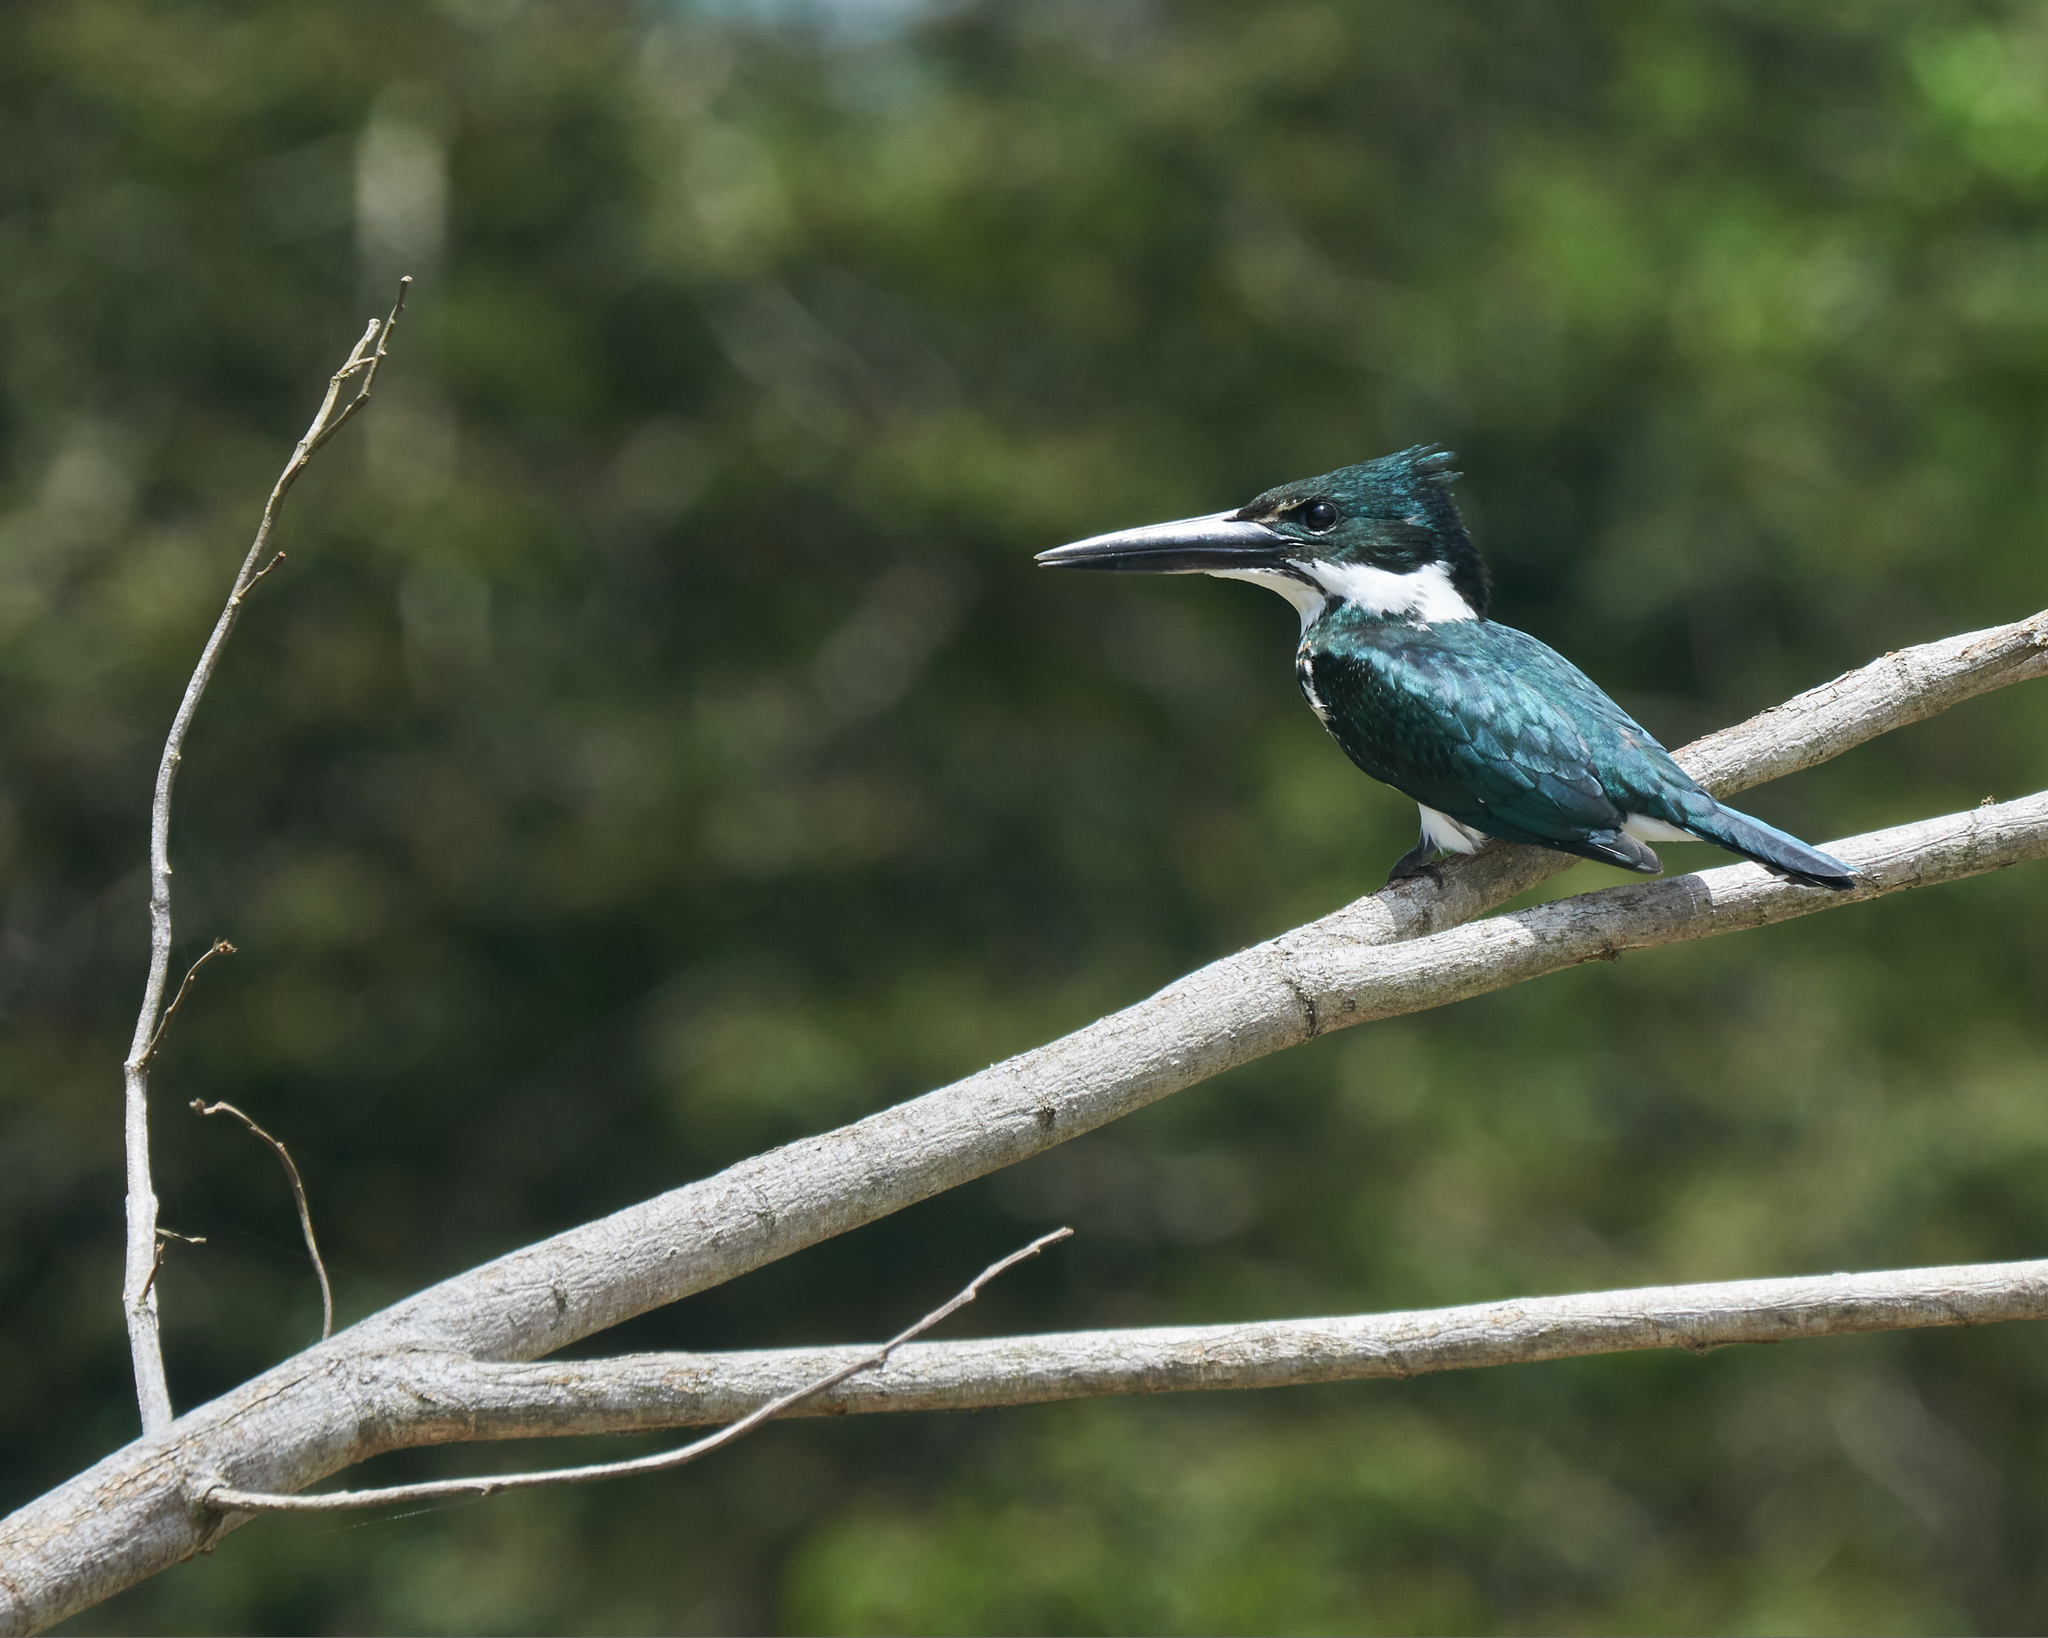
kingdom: Animalia
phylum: Chordata
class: Aves
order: Coraciiformes
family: Alcedinidae
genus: Chloroceryle
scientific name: Chloroceryle amazona
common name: Amazon kingfisher
